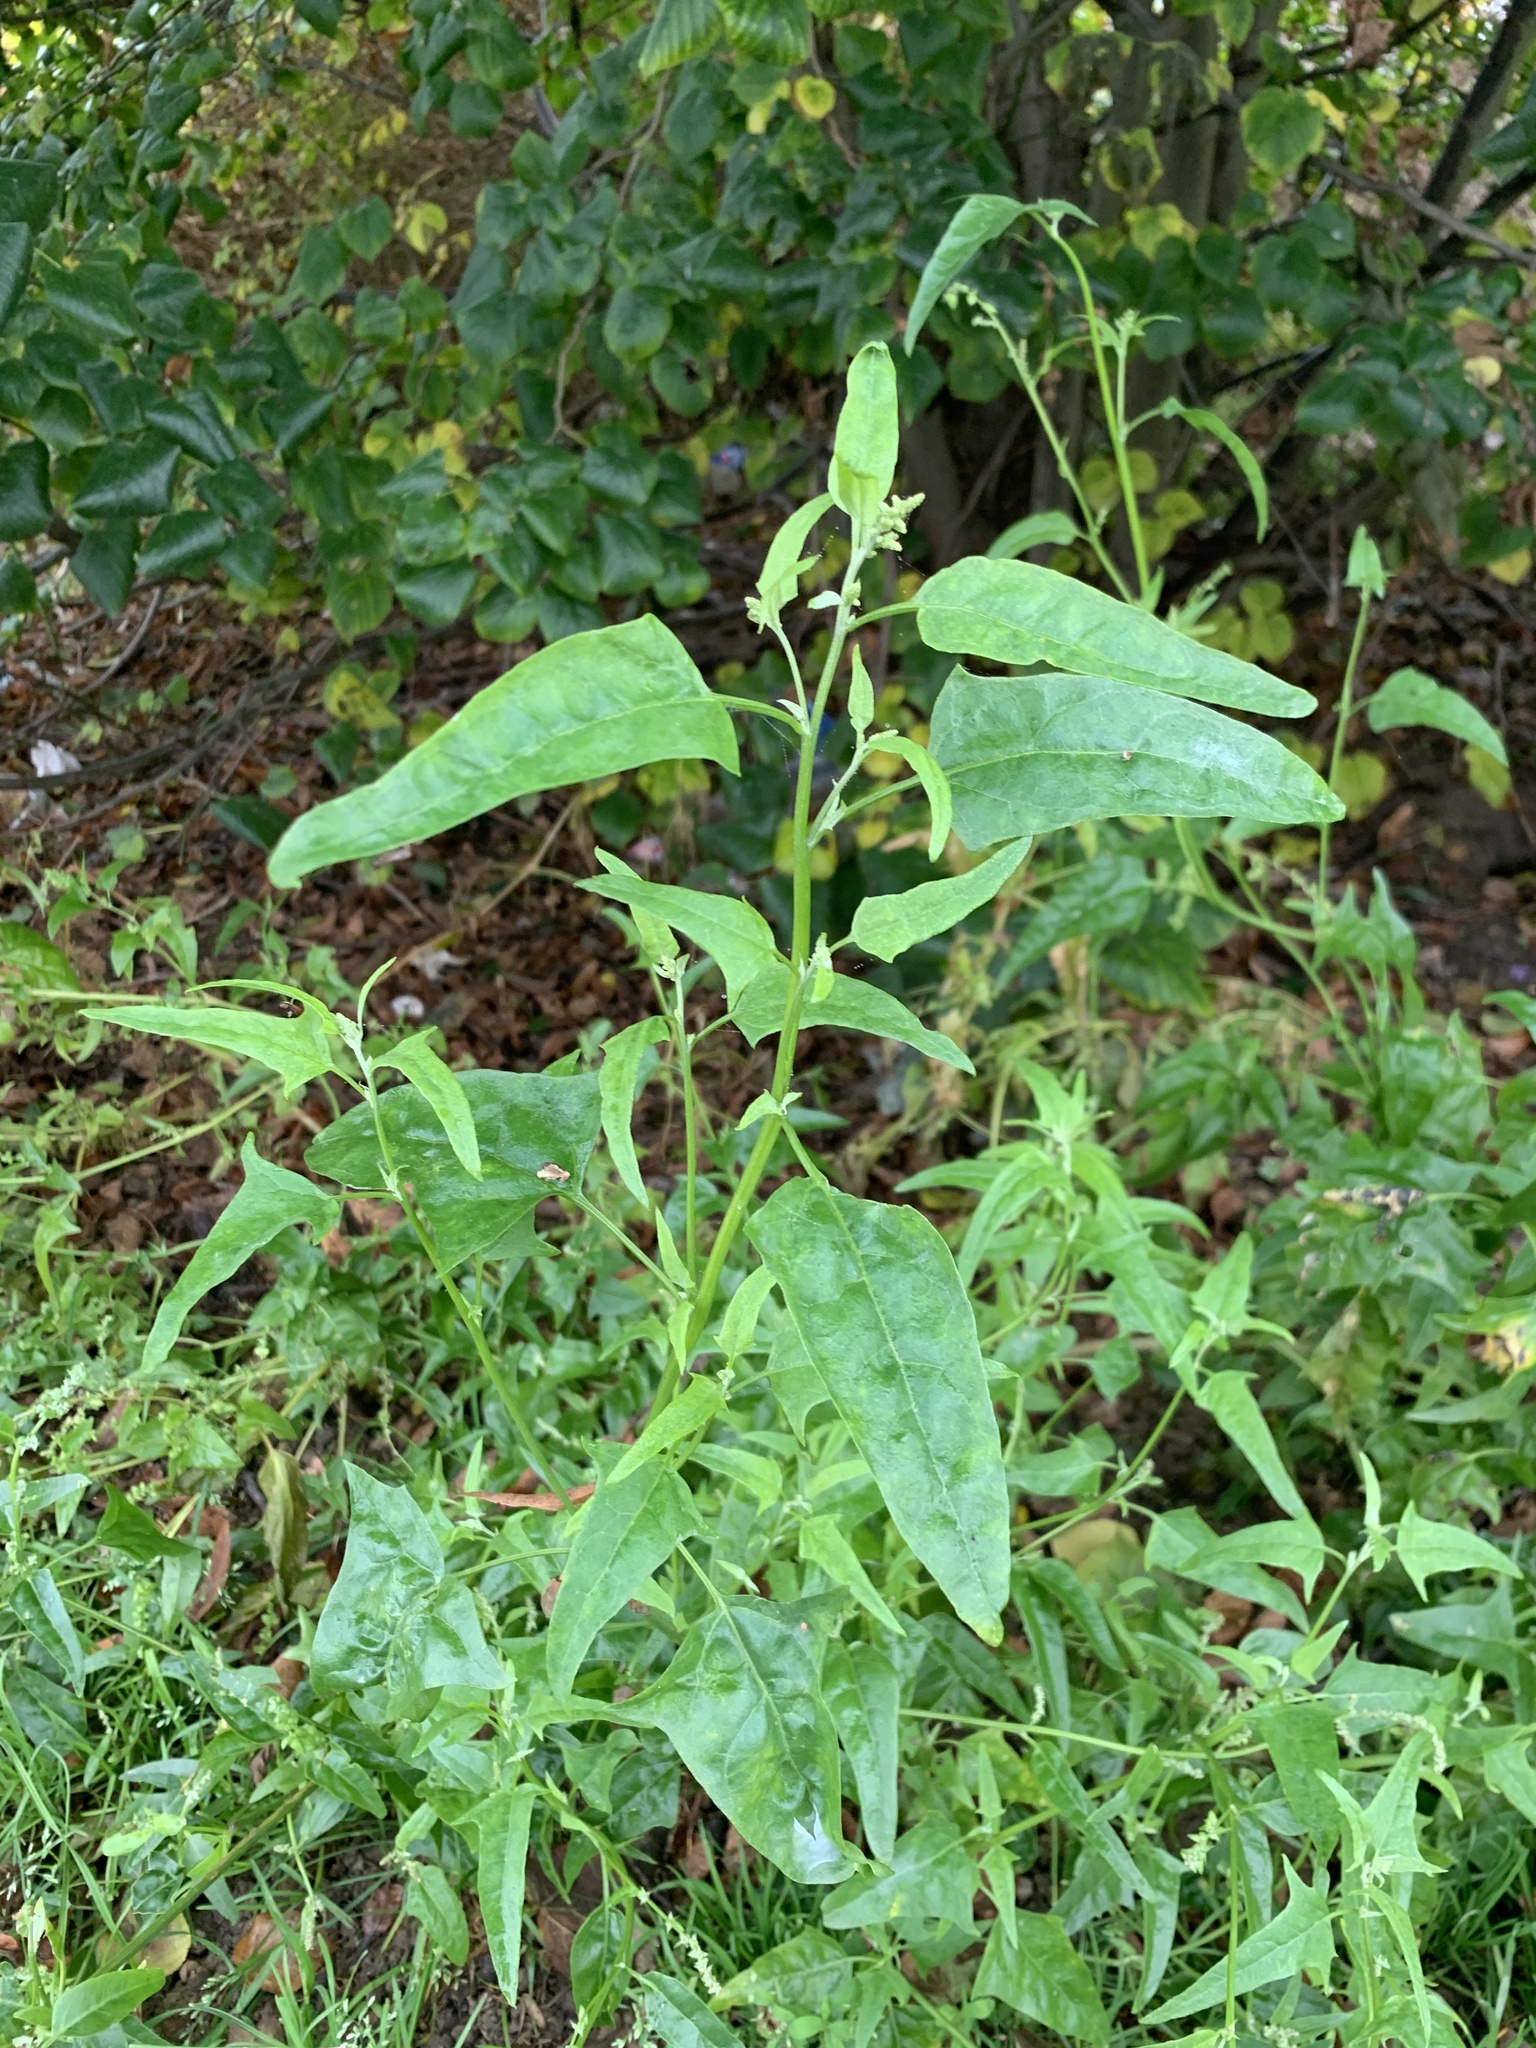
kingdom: Plantae
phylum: Tracheophyta
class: Magnoliopsida
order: Caryophyllales
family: Amaranthaceae
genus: Atriplex
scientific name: Atriplex prostrata
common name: Spear-leaved orache
